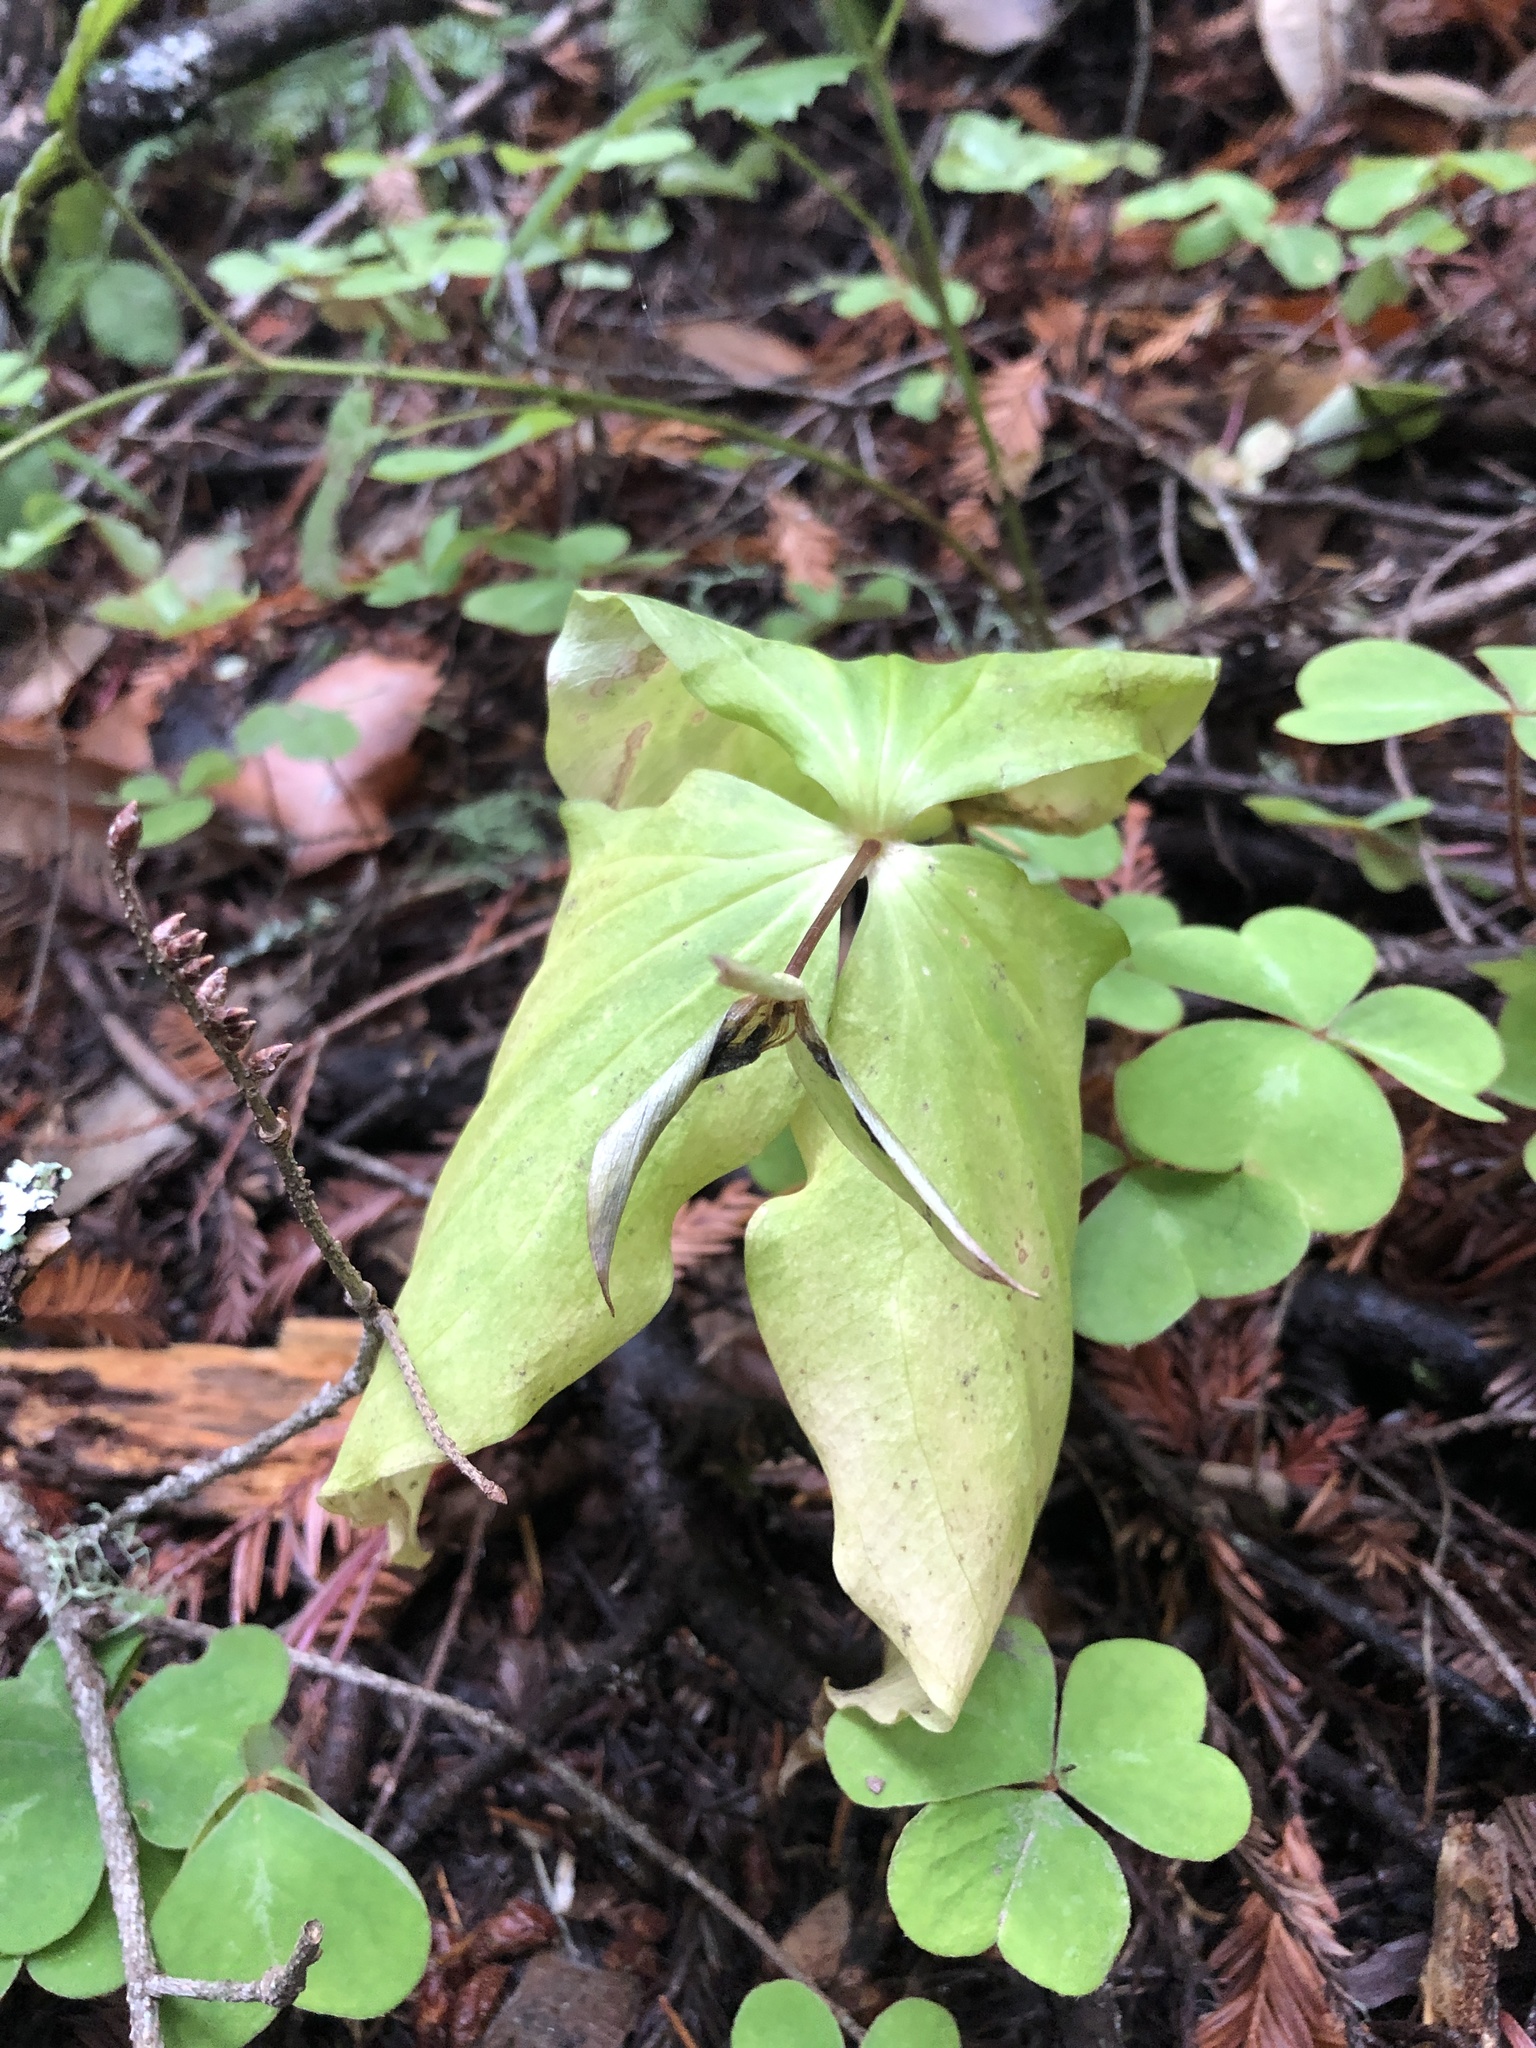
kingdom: Plantae
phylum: Tracheophyta
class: Liliopsida
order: Liliales
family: Melanthiaceae
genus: Trillium
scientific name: Trillium ovatum
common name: Pacific trillium
